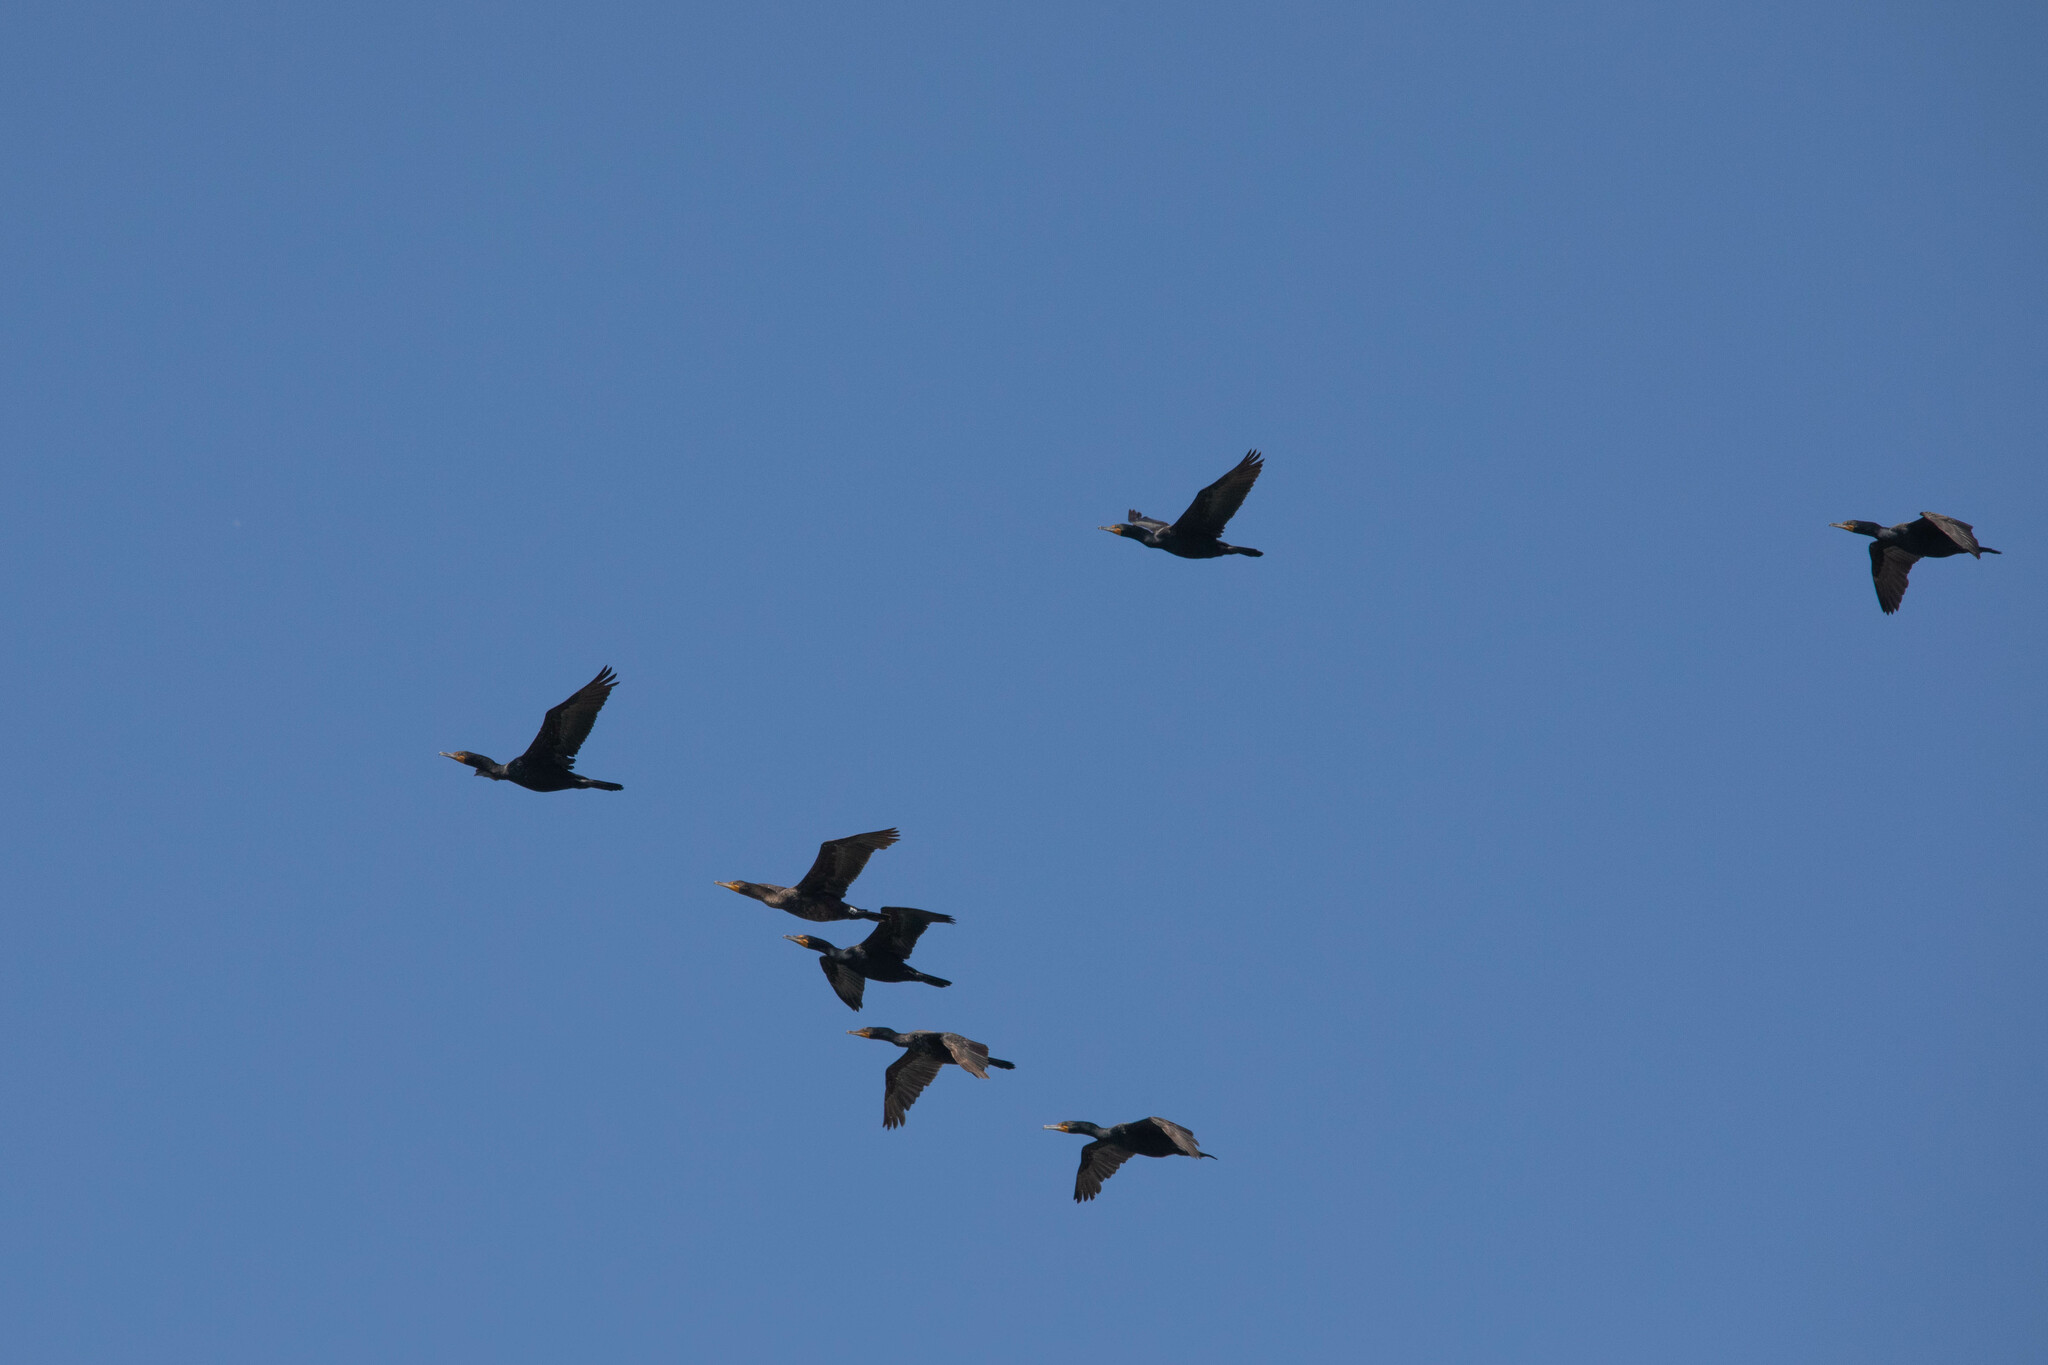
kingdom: Animalia
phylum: Chordata
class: Aves
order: Suliformes
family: Phalacrocoracidae
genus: Phalacrocorax
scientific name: Phalacrocorax auritus
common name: Double-crested cormorant
